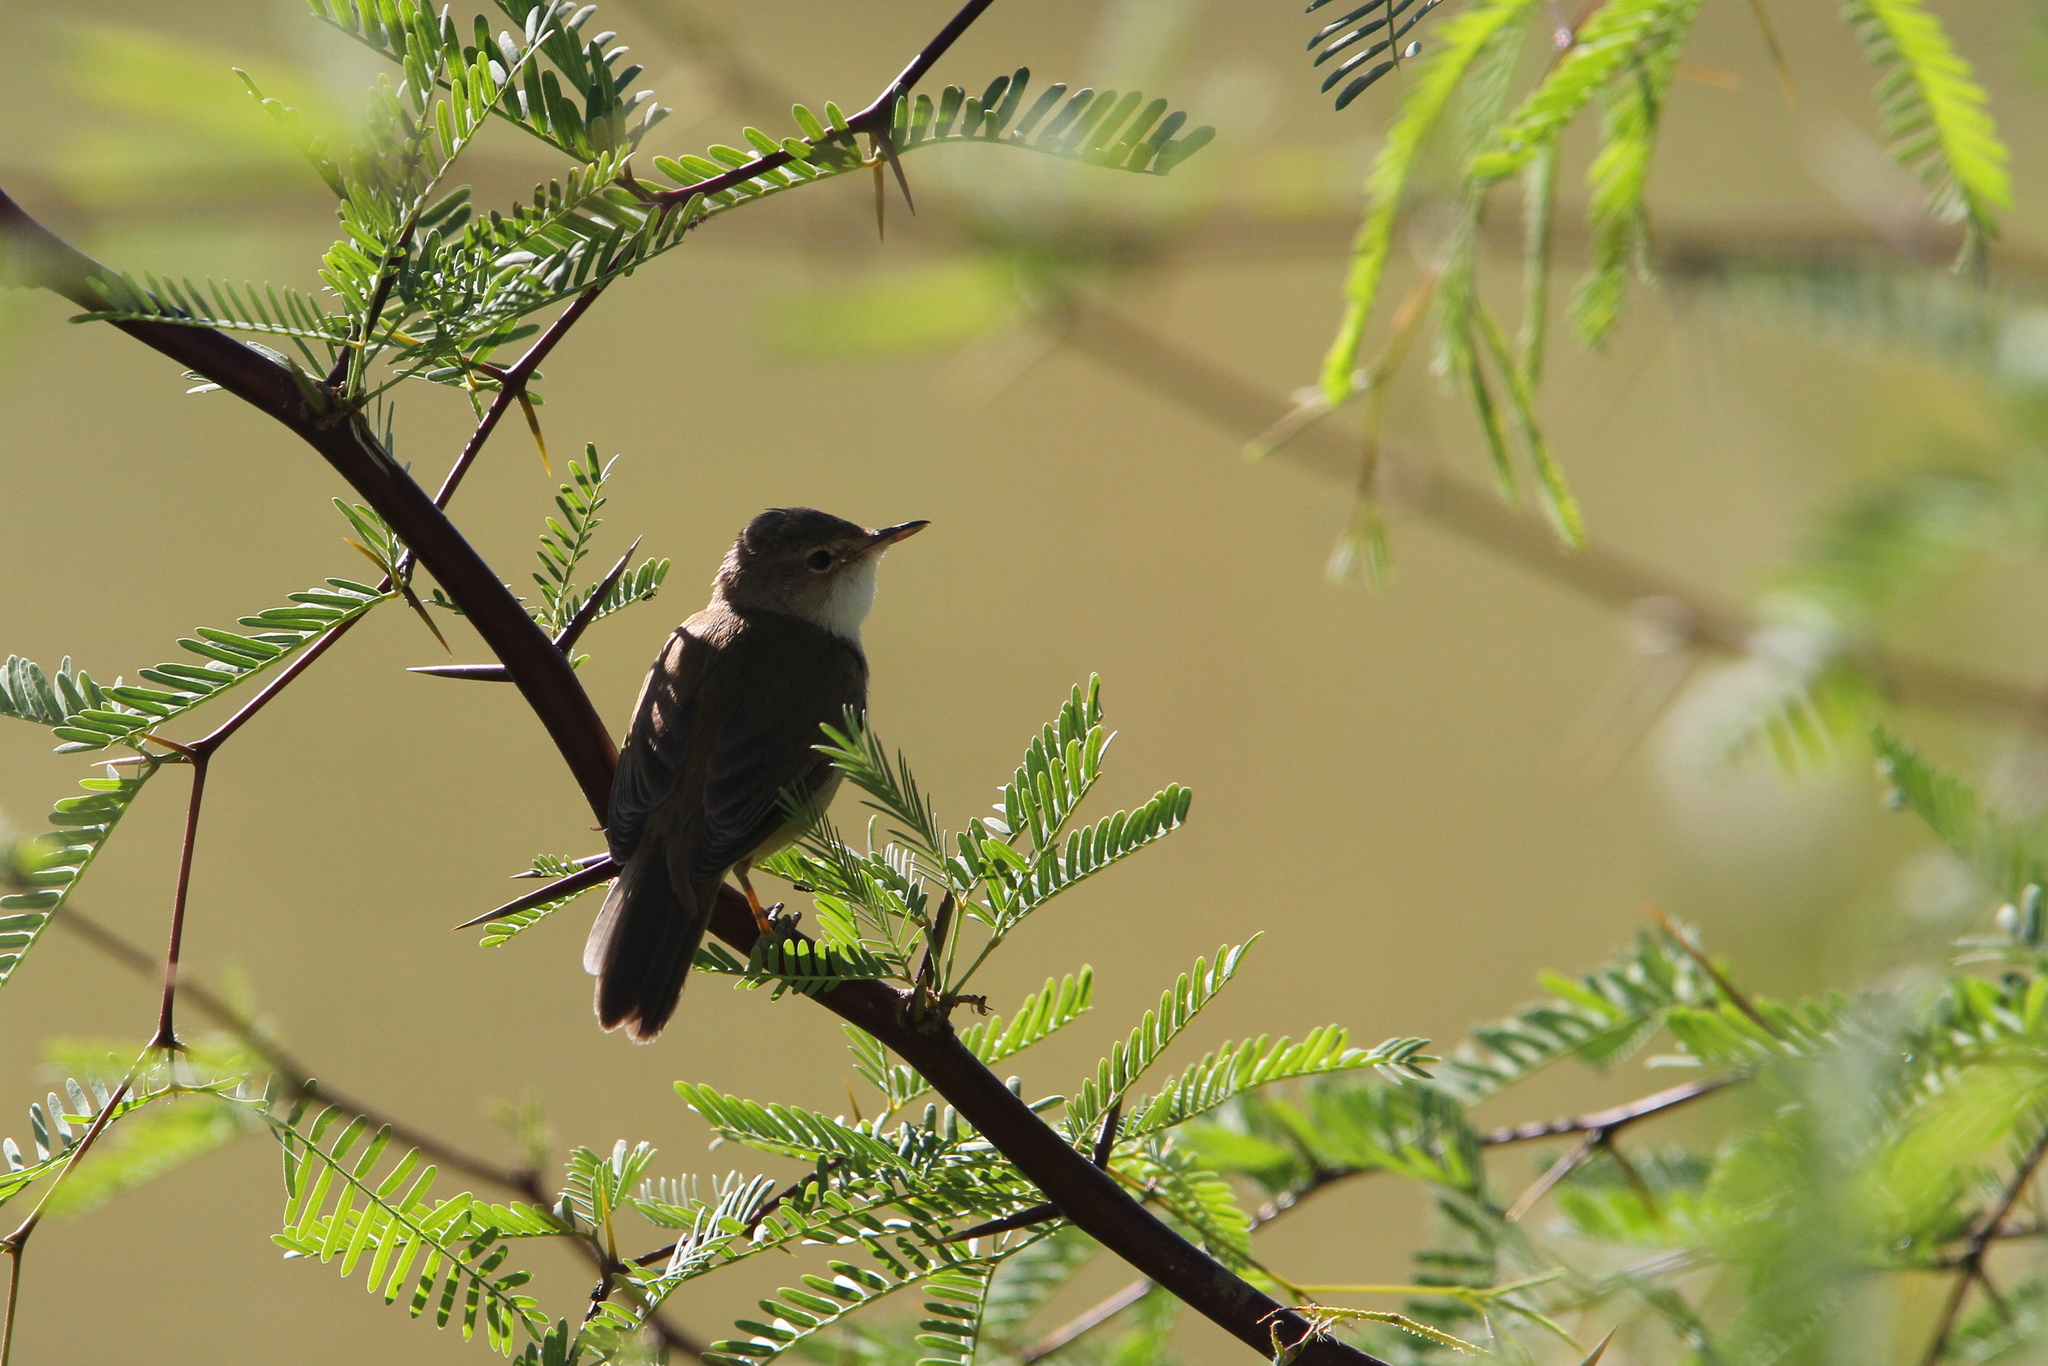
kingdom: Animalia
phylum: Chordata
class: Aves
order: Passeriformes
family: Acrocephalidae
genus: Acrocephalus
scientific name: Acrocephalus scirpaceus
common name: Eurasian reed warbler
